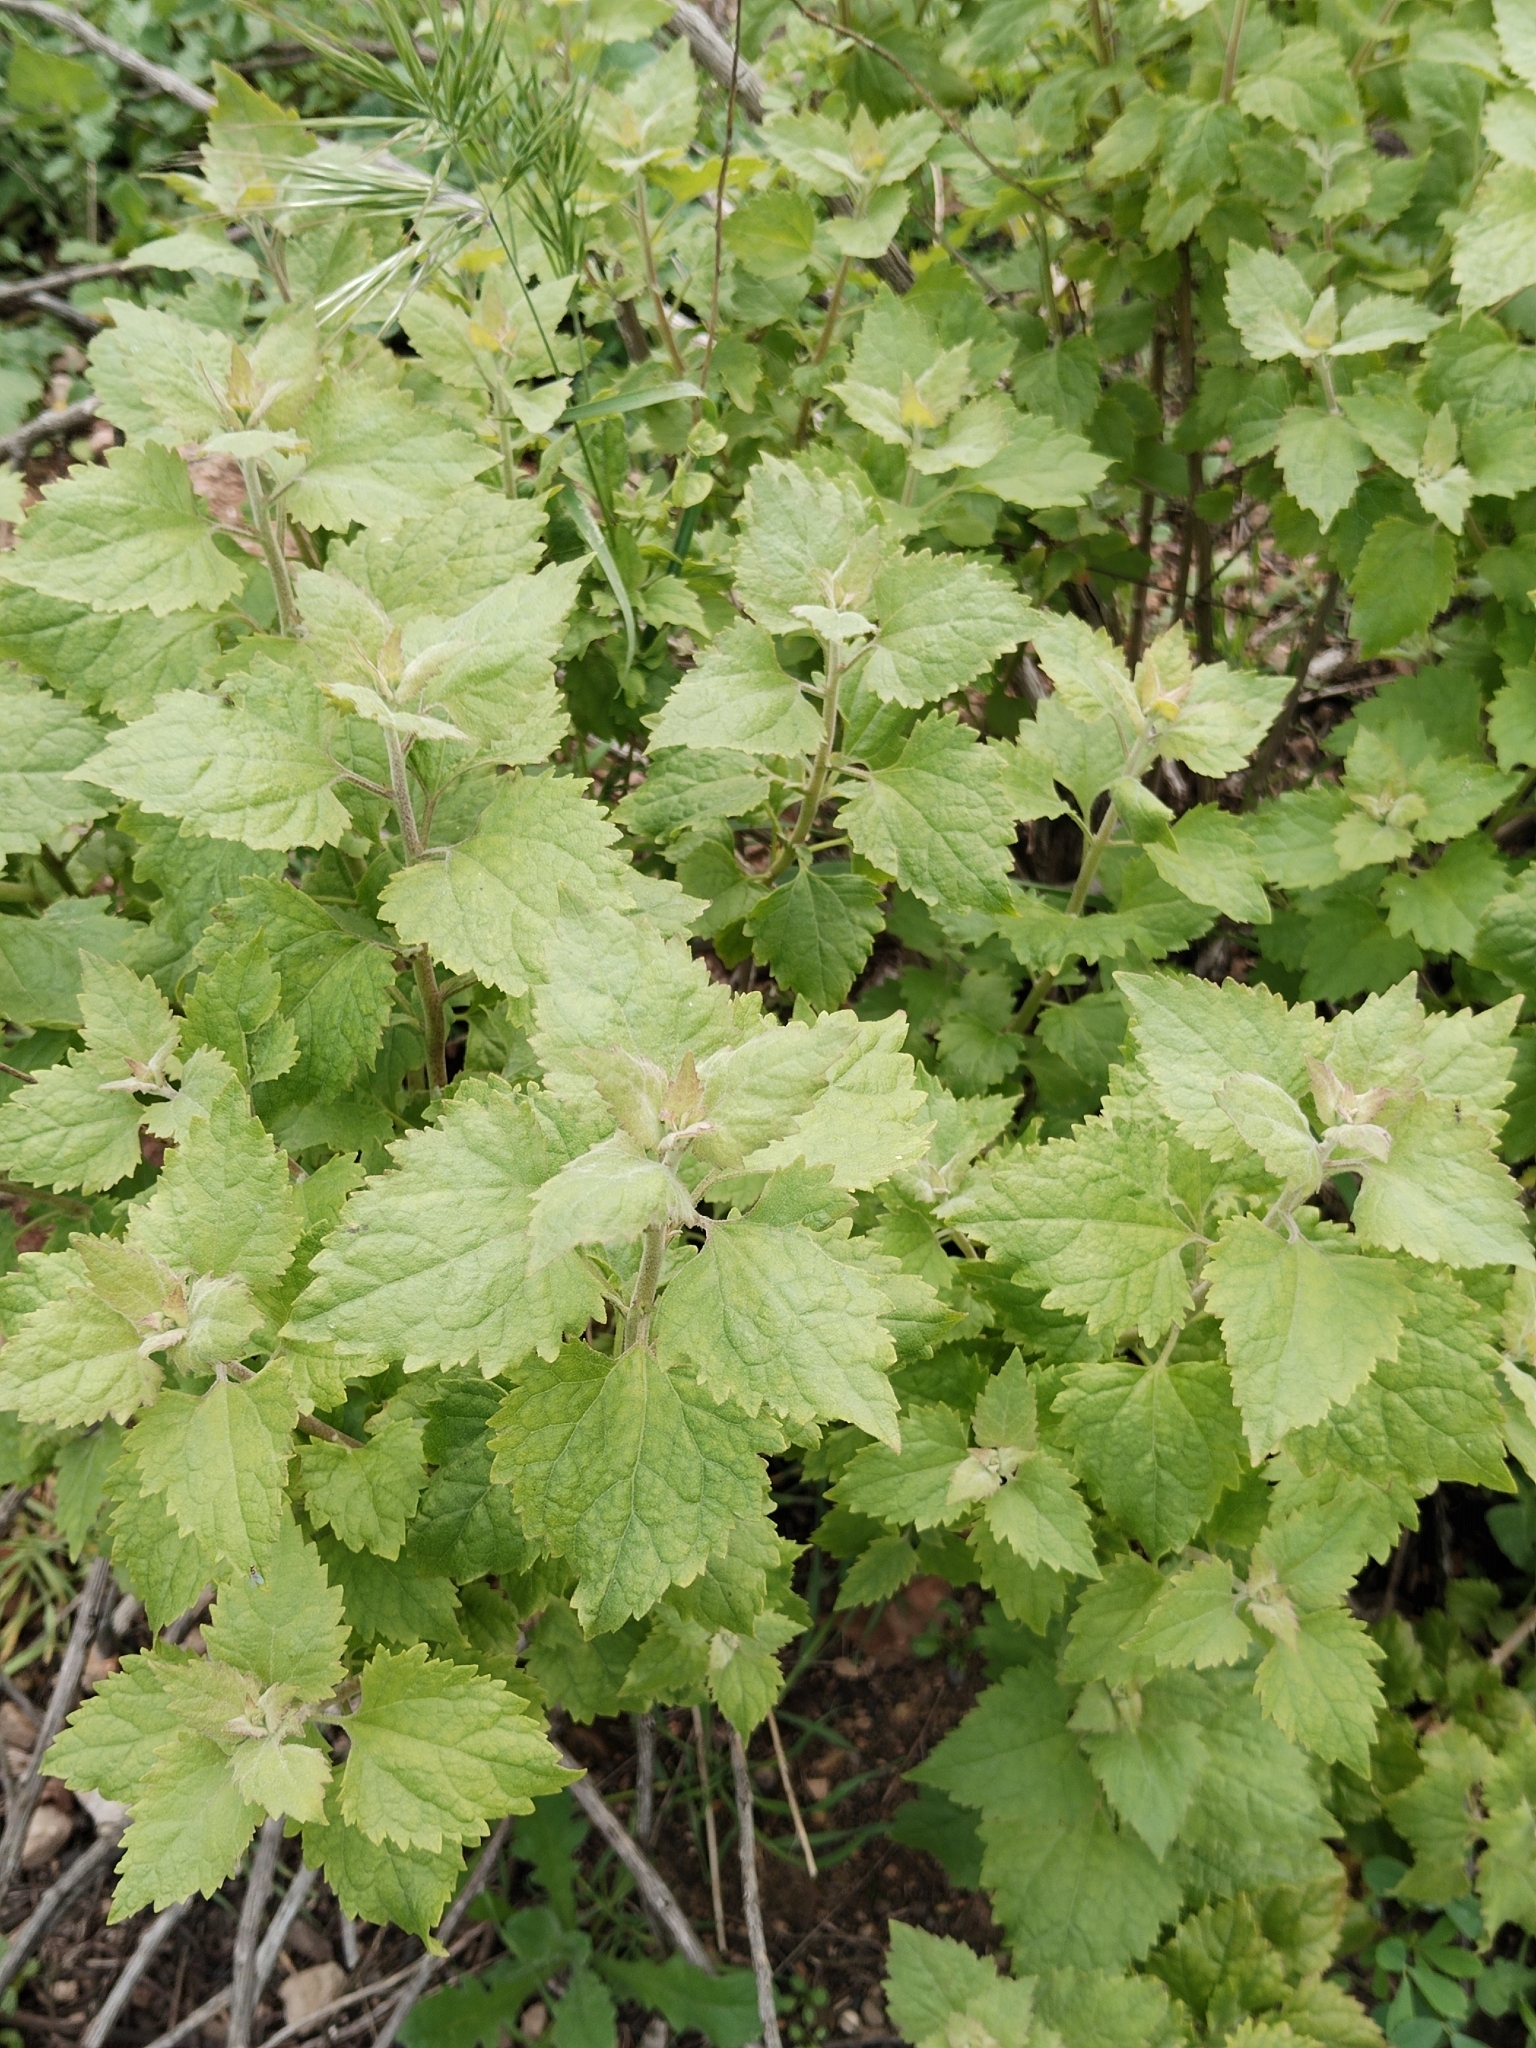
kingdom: Plantae
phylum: Tracheophyta
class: Magnoliopsida
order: Asterales
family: Asteraceae
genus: Brickellia
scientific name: Brickellia californica
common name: California brickellbush
